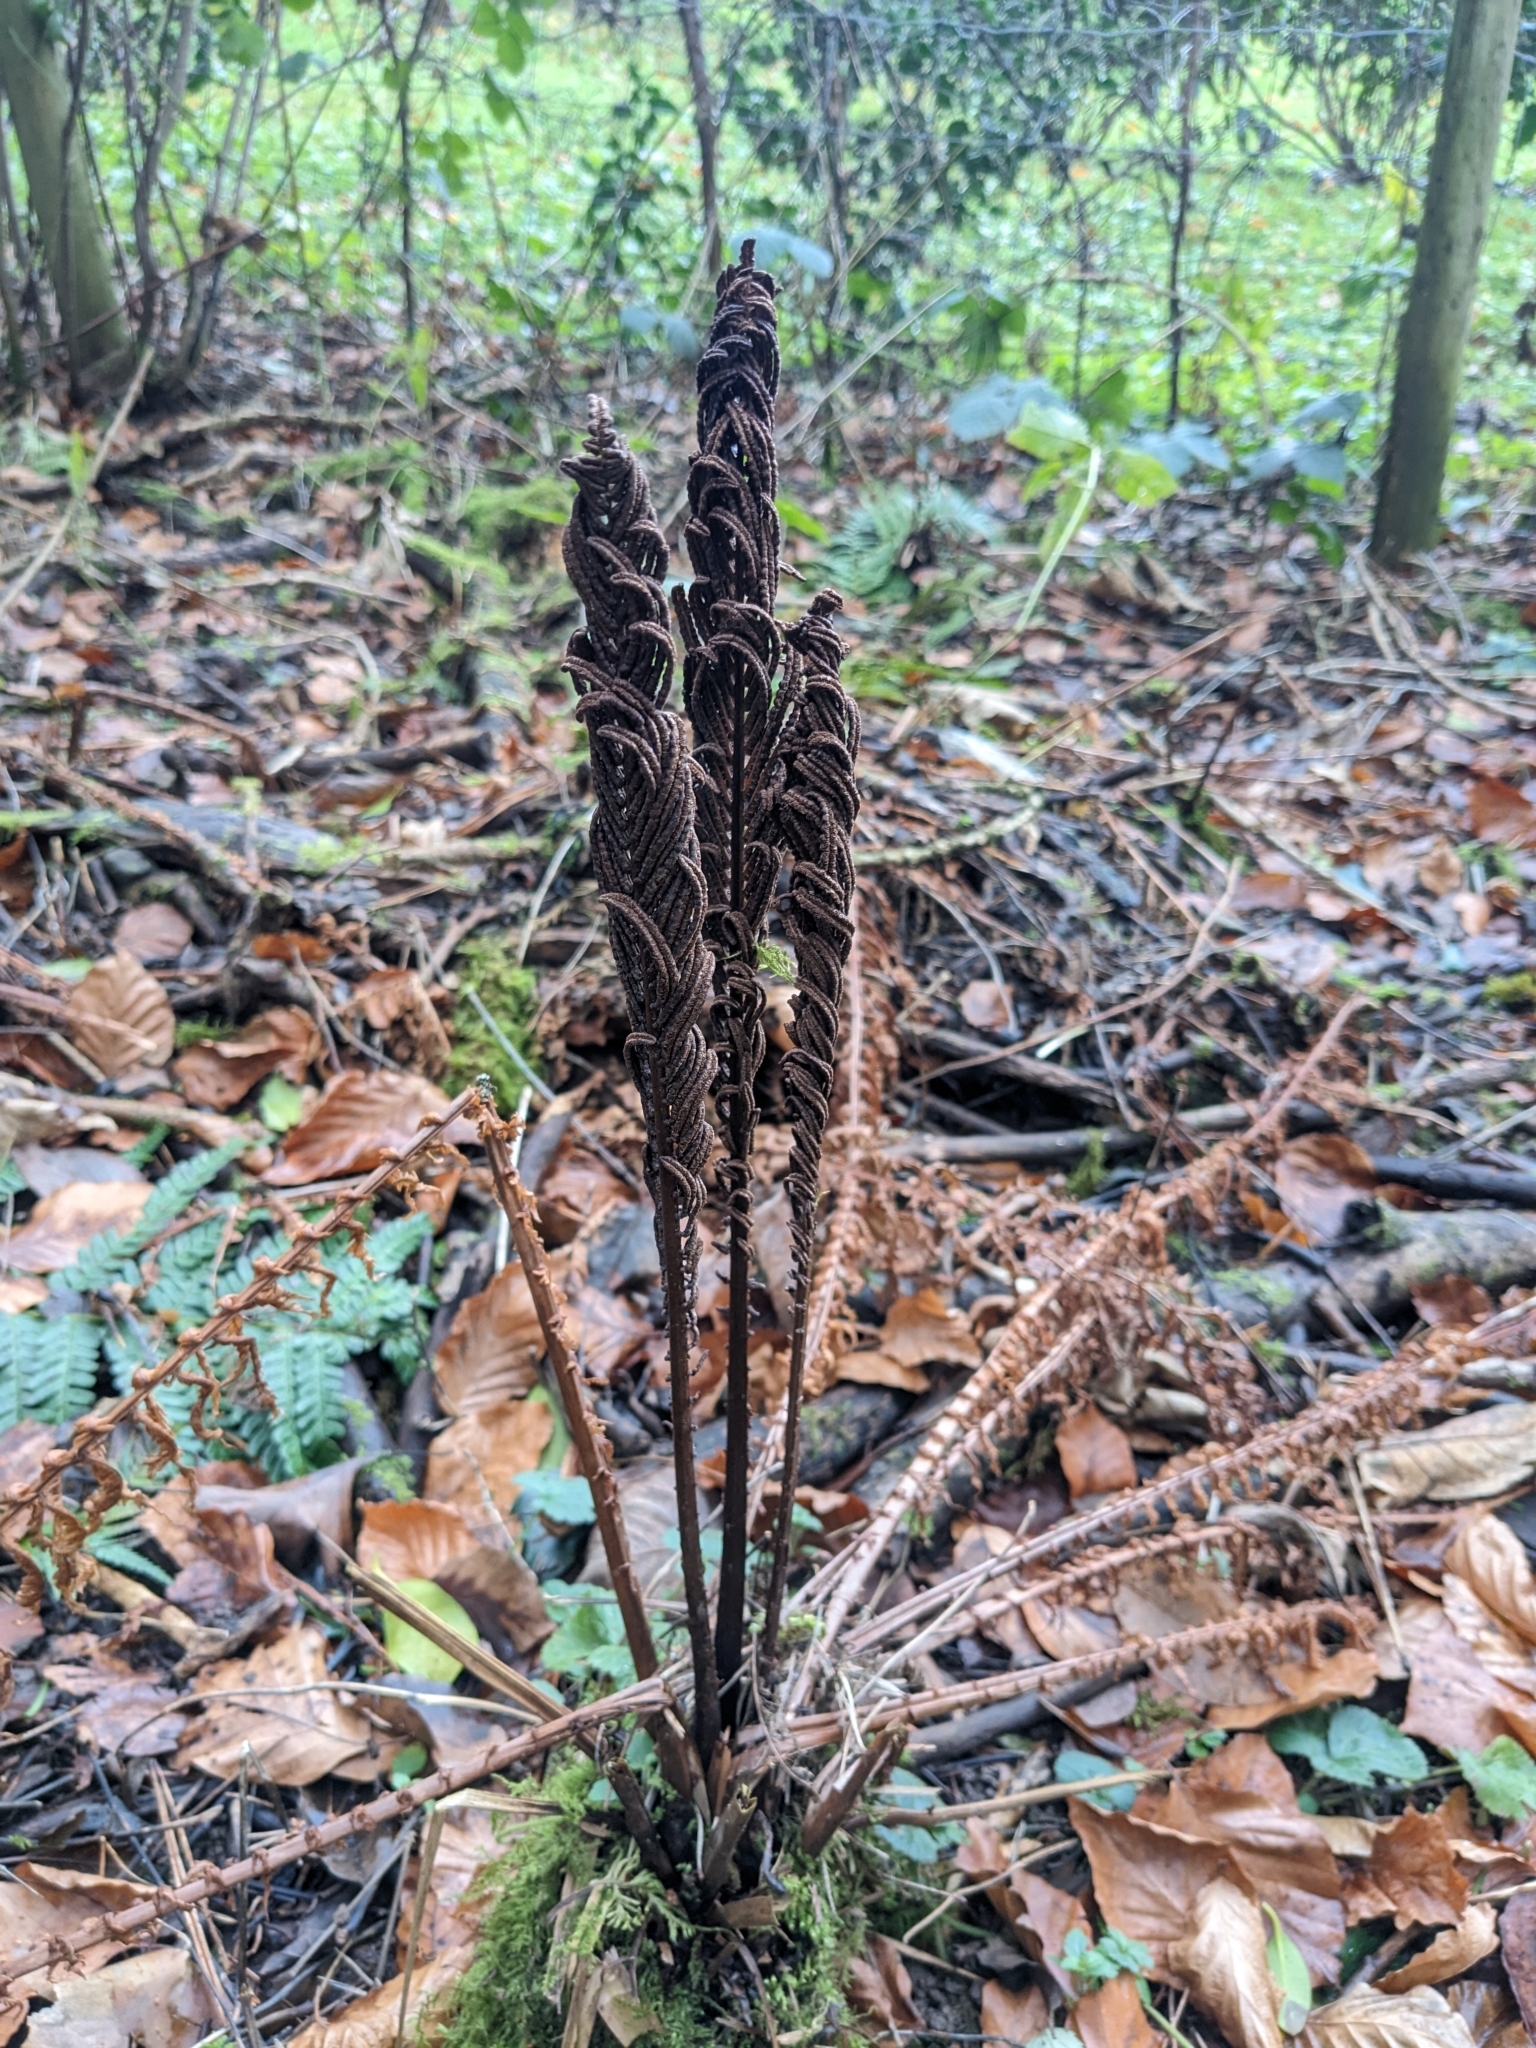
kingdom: Plantae
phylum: Tracheophyta
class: Polypodiopsida
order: Polypodiales
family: Onocleaceae
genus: Matteuccia
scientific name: Matteuccia struthiopteris
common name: Ostrich fern
